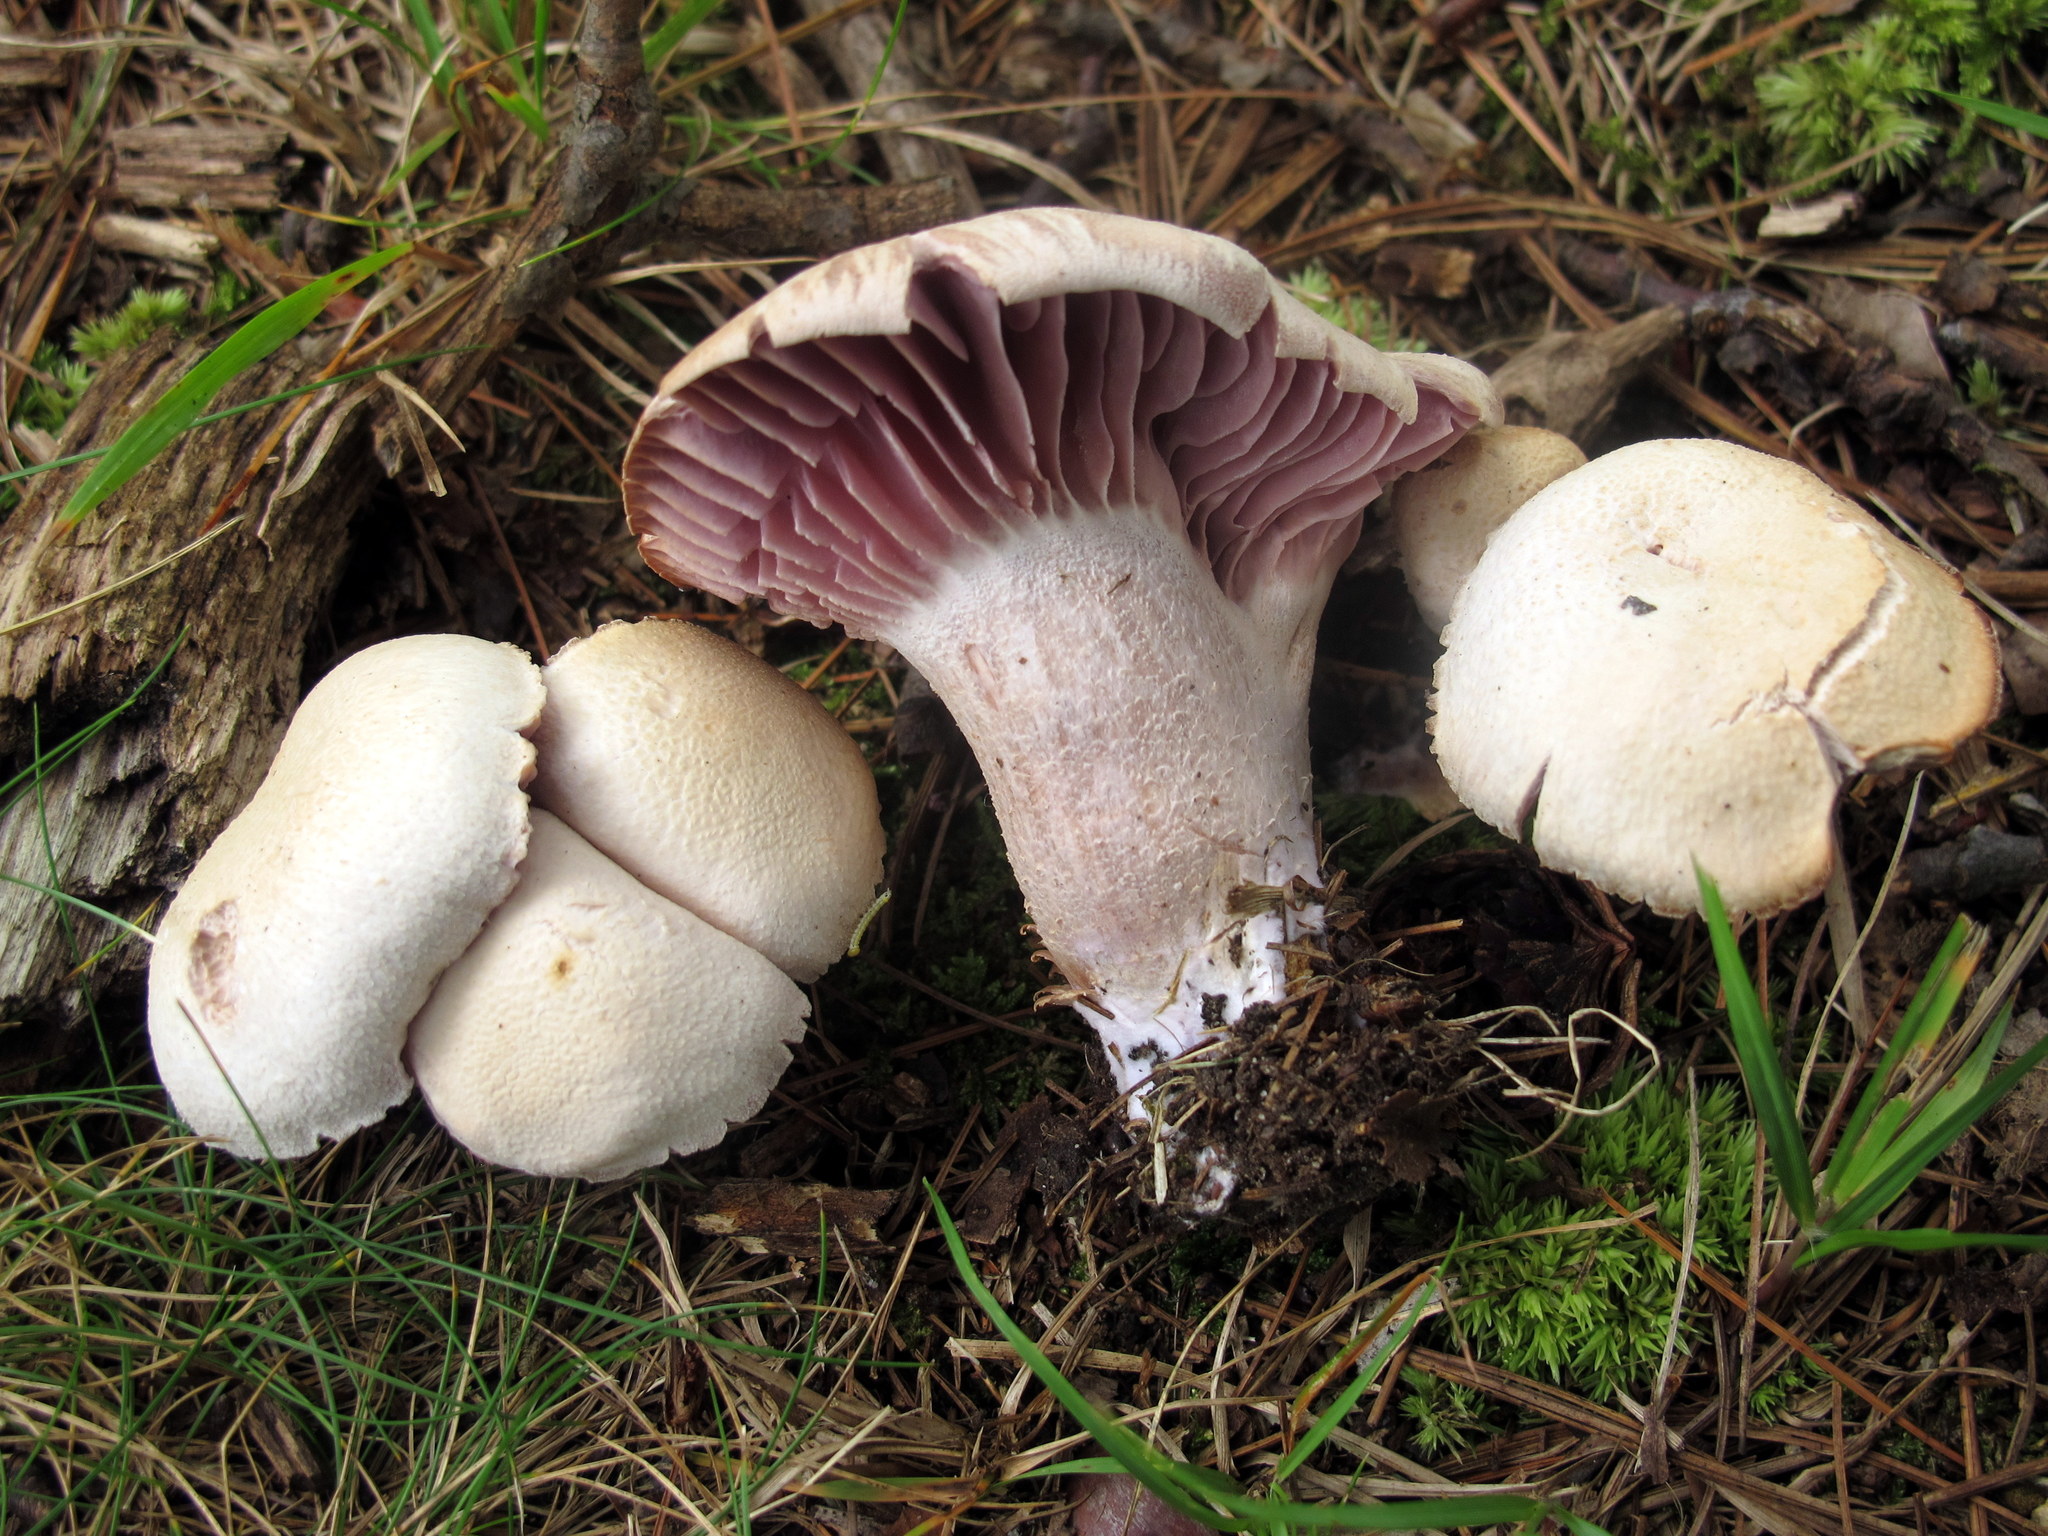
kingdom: Fungi
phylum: Basidiomycota
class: Agaricomycetes
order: Agaricales
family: Hydnangiaceae
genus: Laccaria
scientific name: Laccaria ochropurpurea
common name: Purple laccaria
